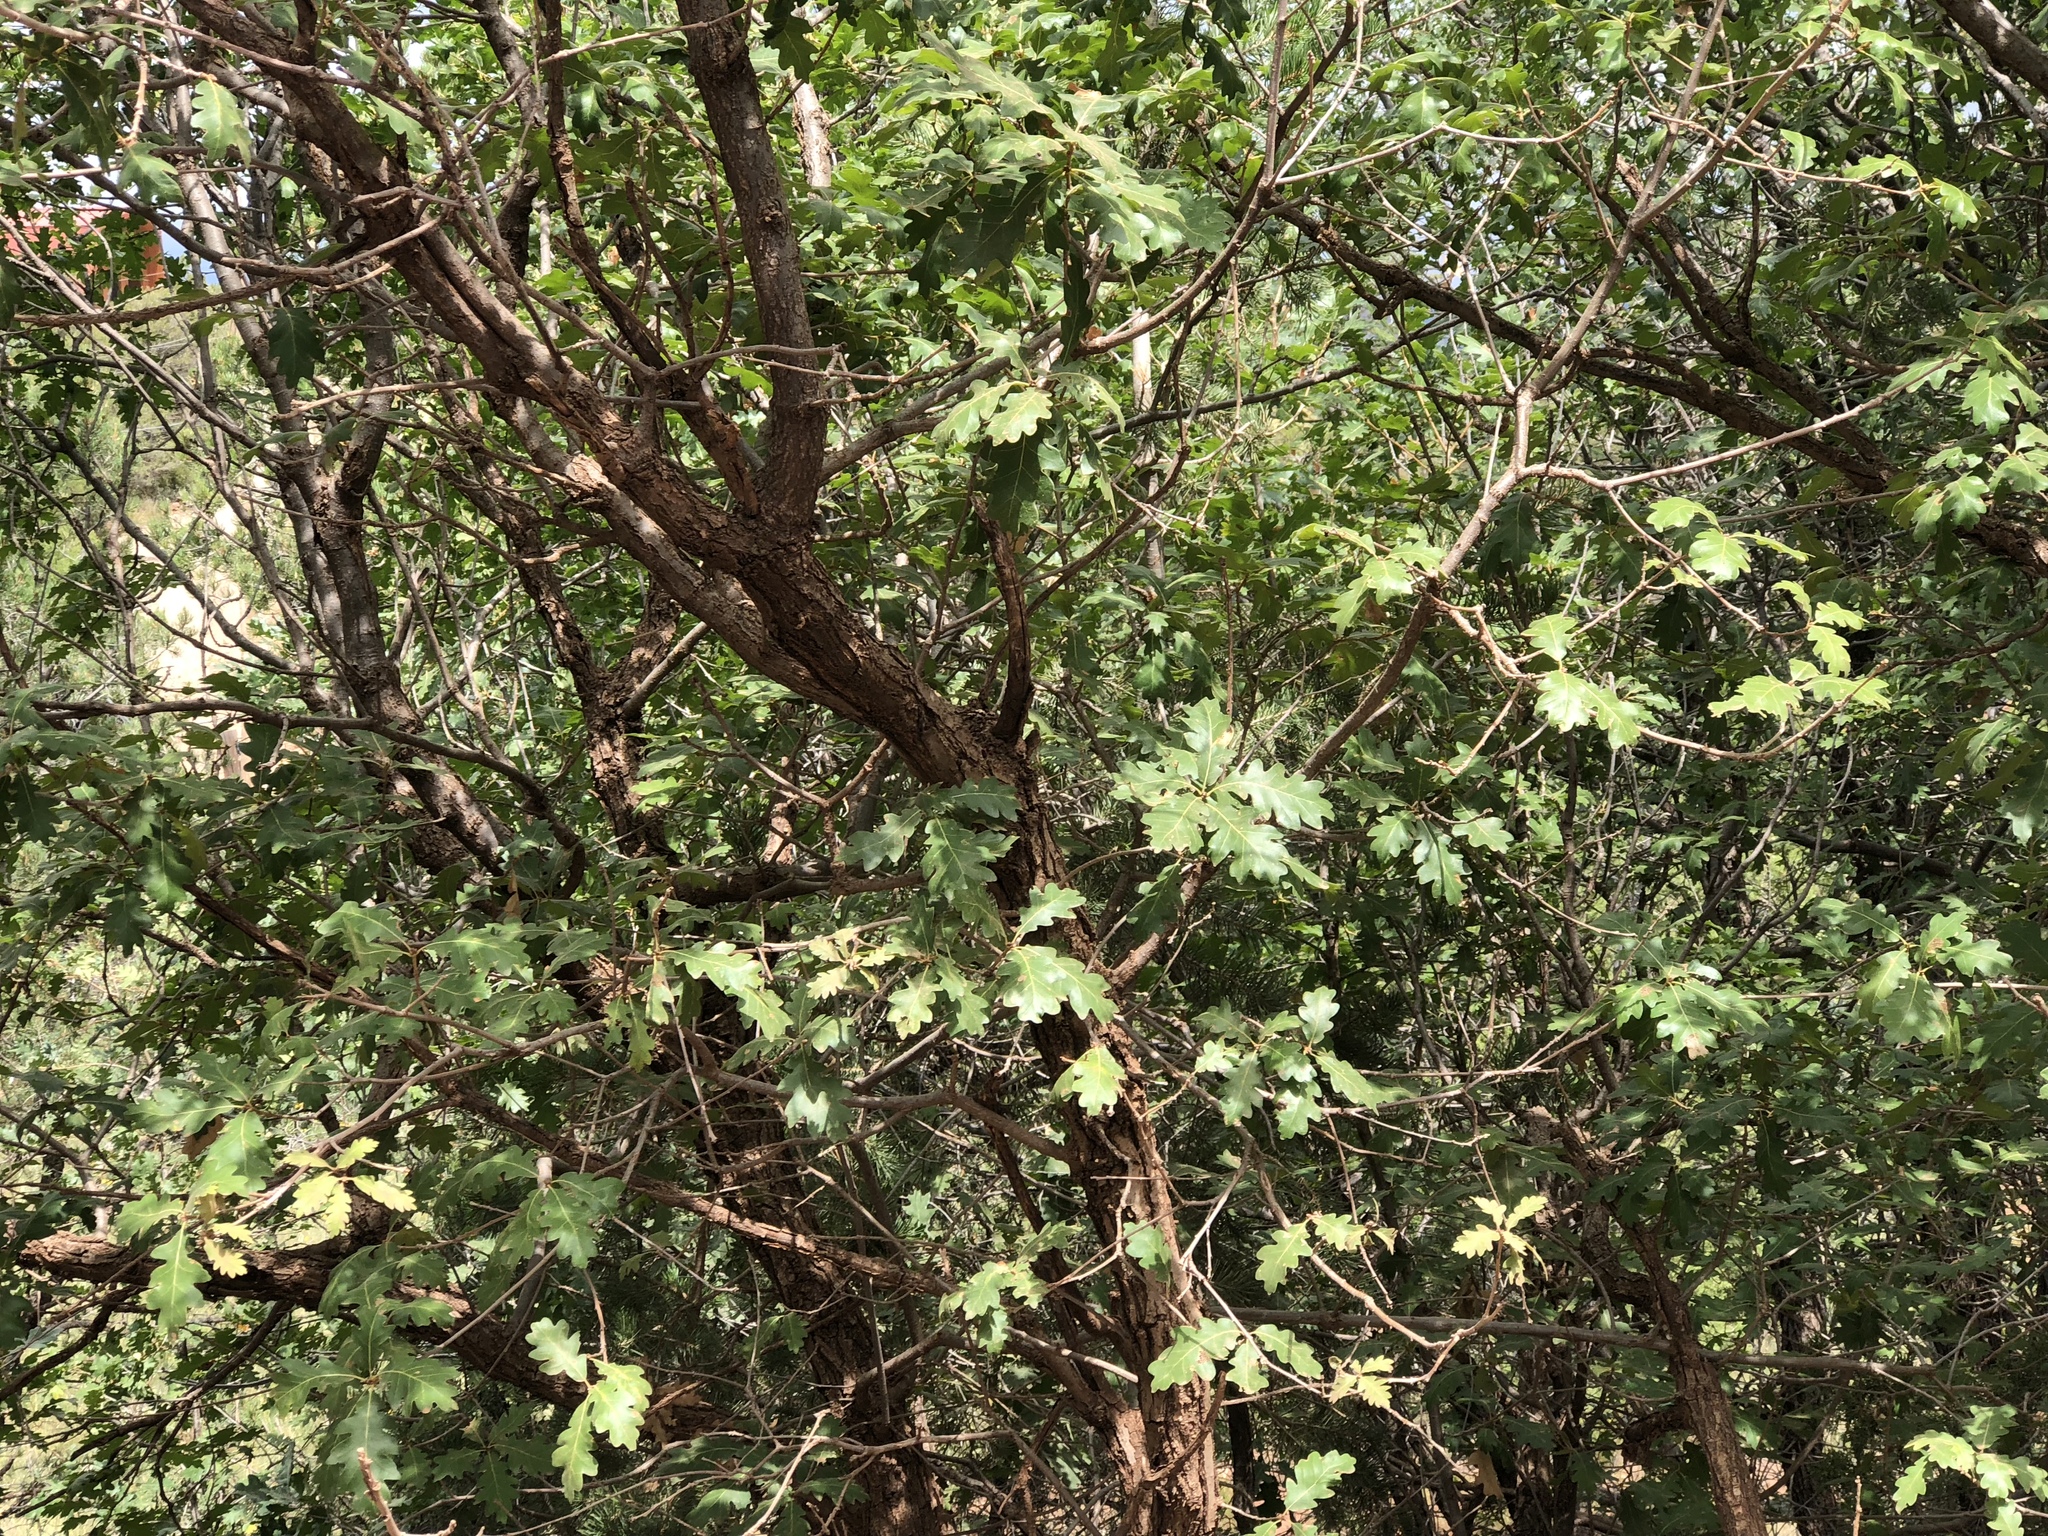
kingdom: Plantae
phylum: Tracheophyta
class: Magnoliopsida
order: Fagales
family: Fagaceae
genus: Quercus
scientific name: Quercus gambelii
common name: Gambel oak
